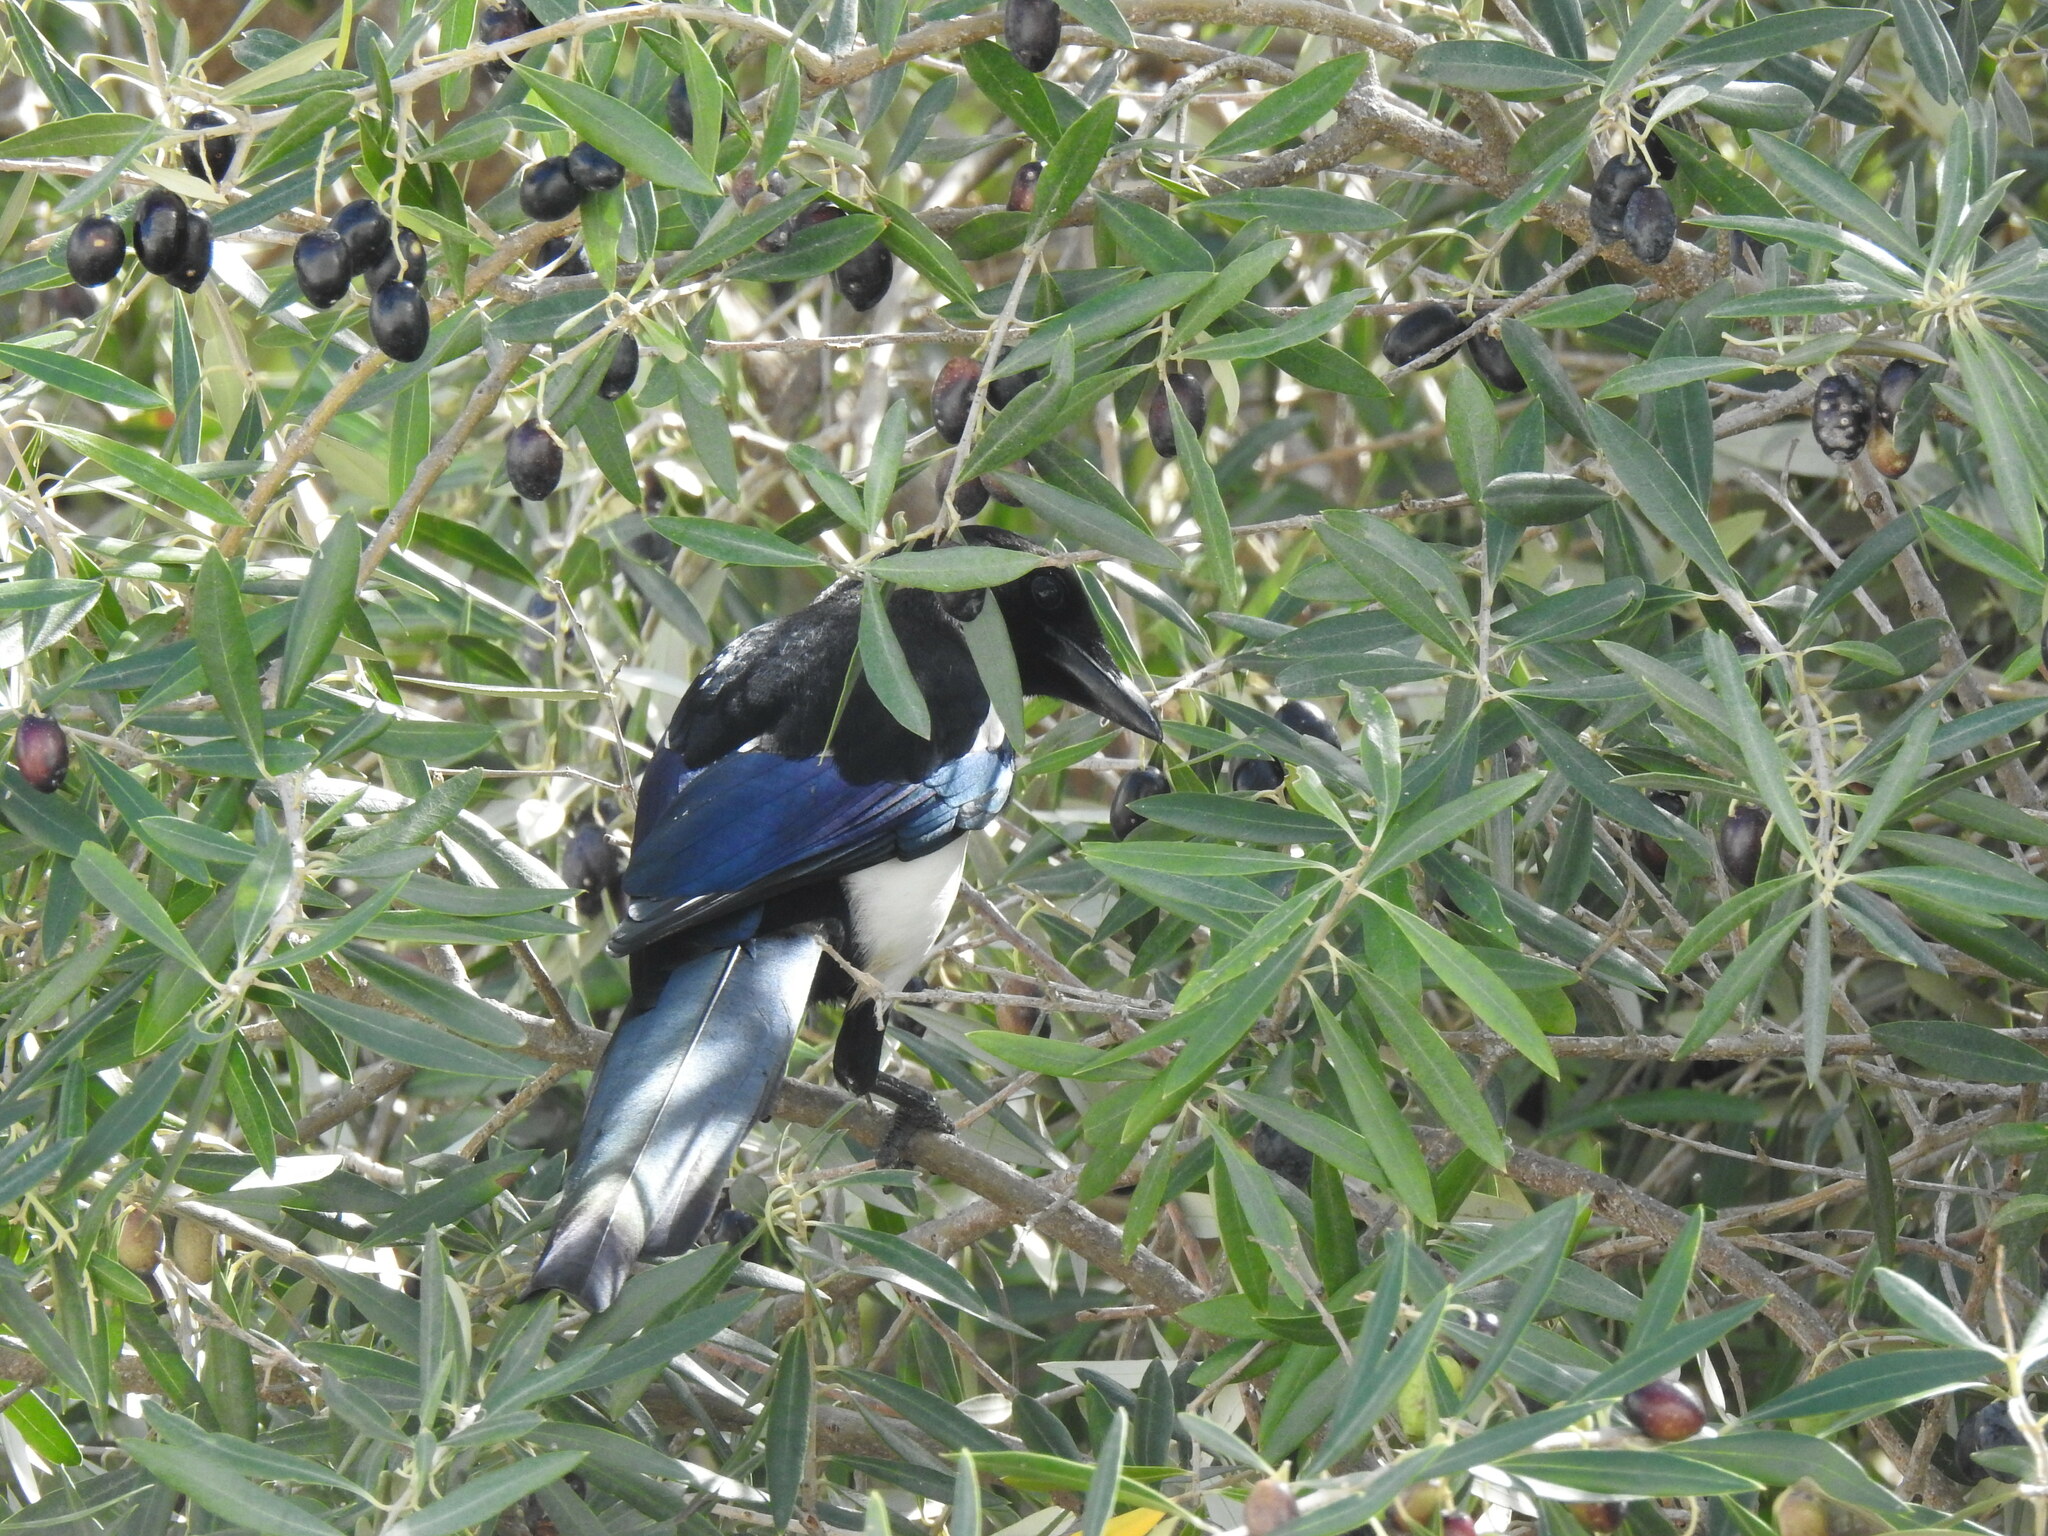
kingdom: Animalia
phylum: Chordata
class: Aves
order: Passeriformes
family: Corvidae
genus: Pica
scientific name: Pica pica
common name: Eurasian magpie
